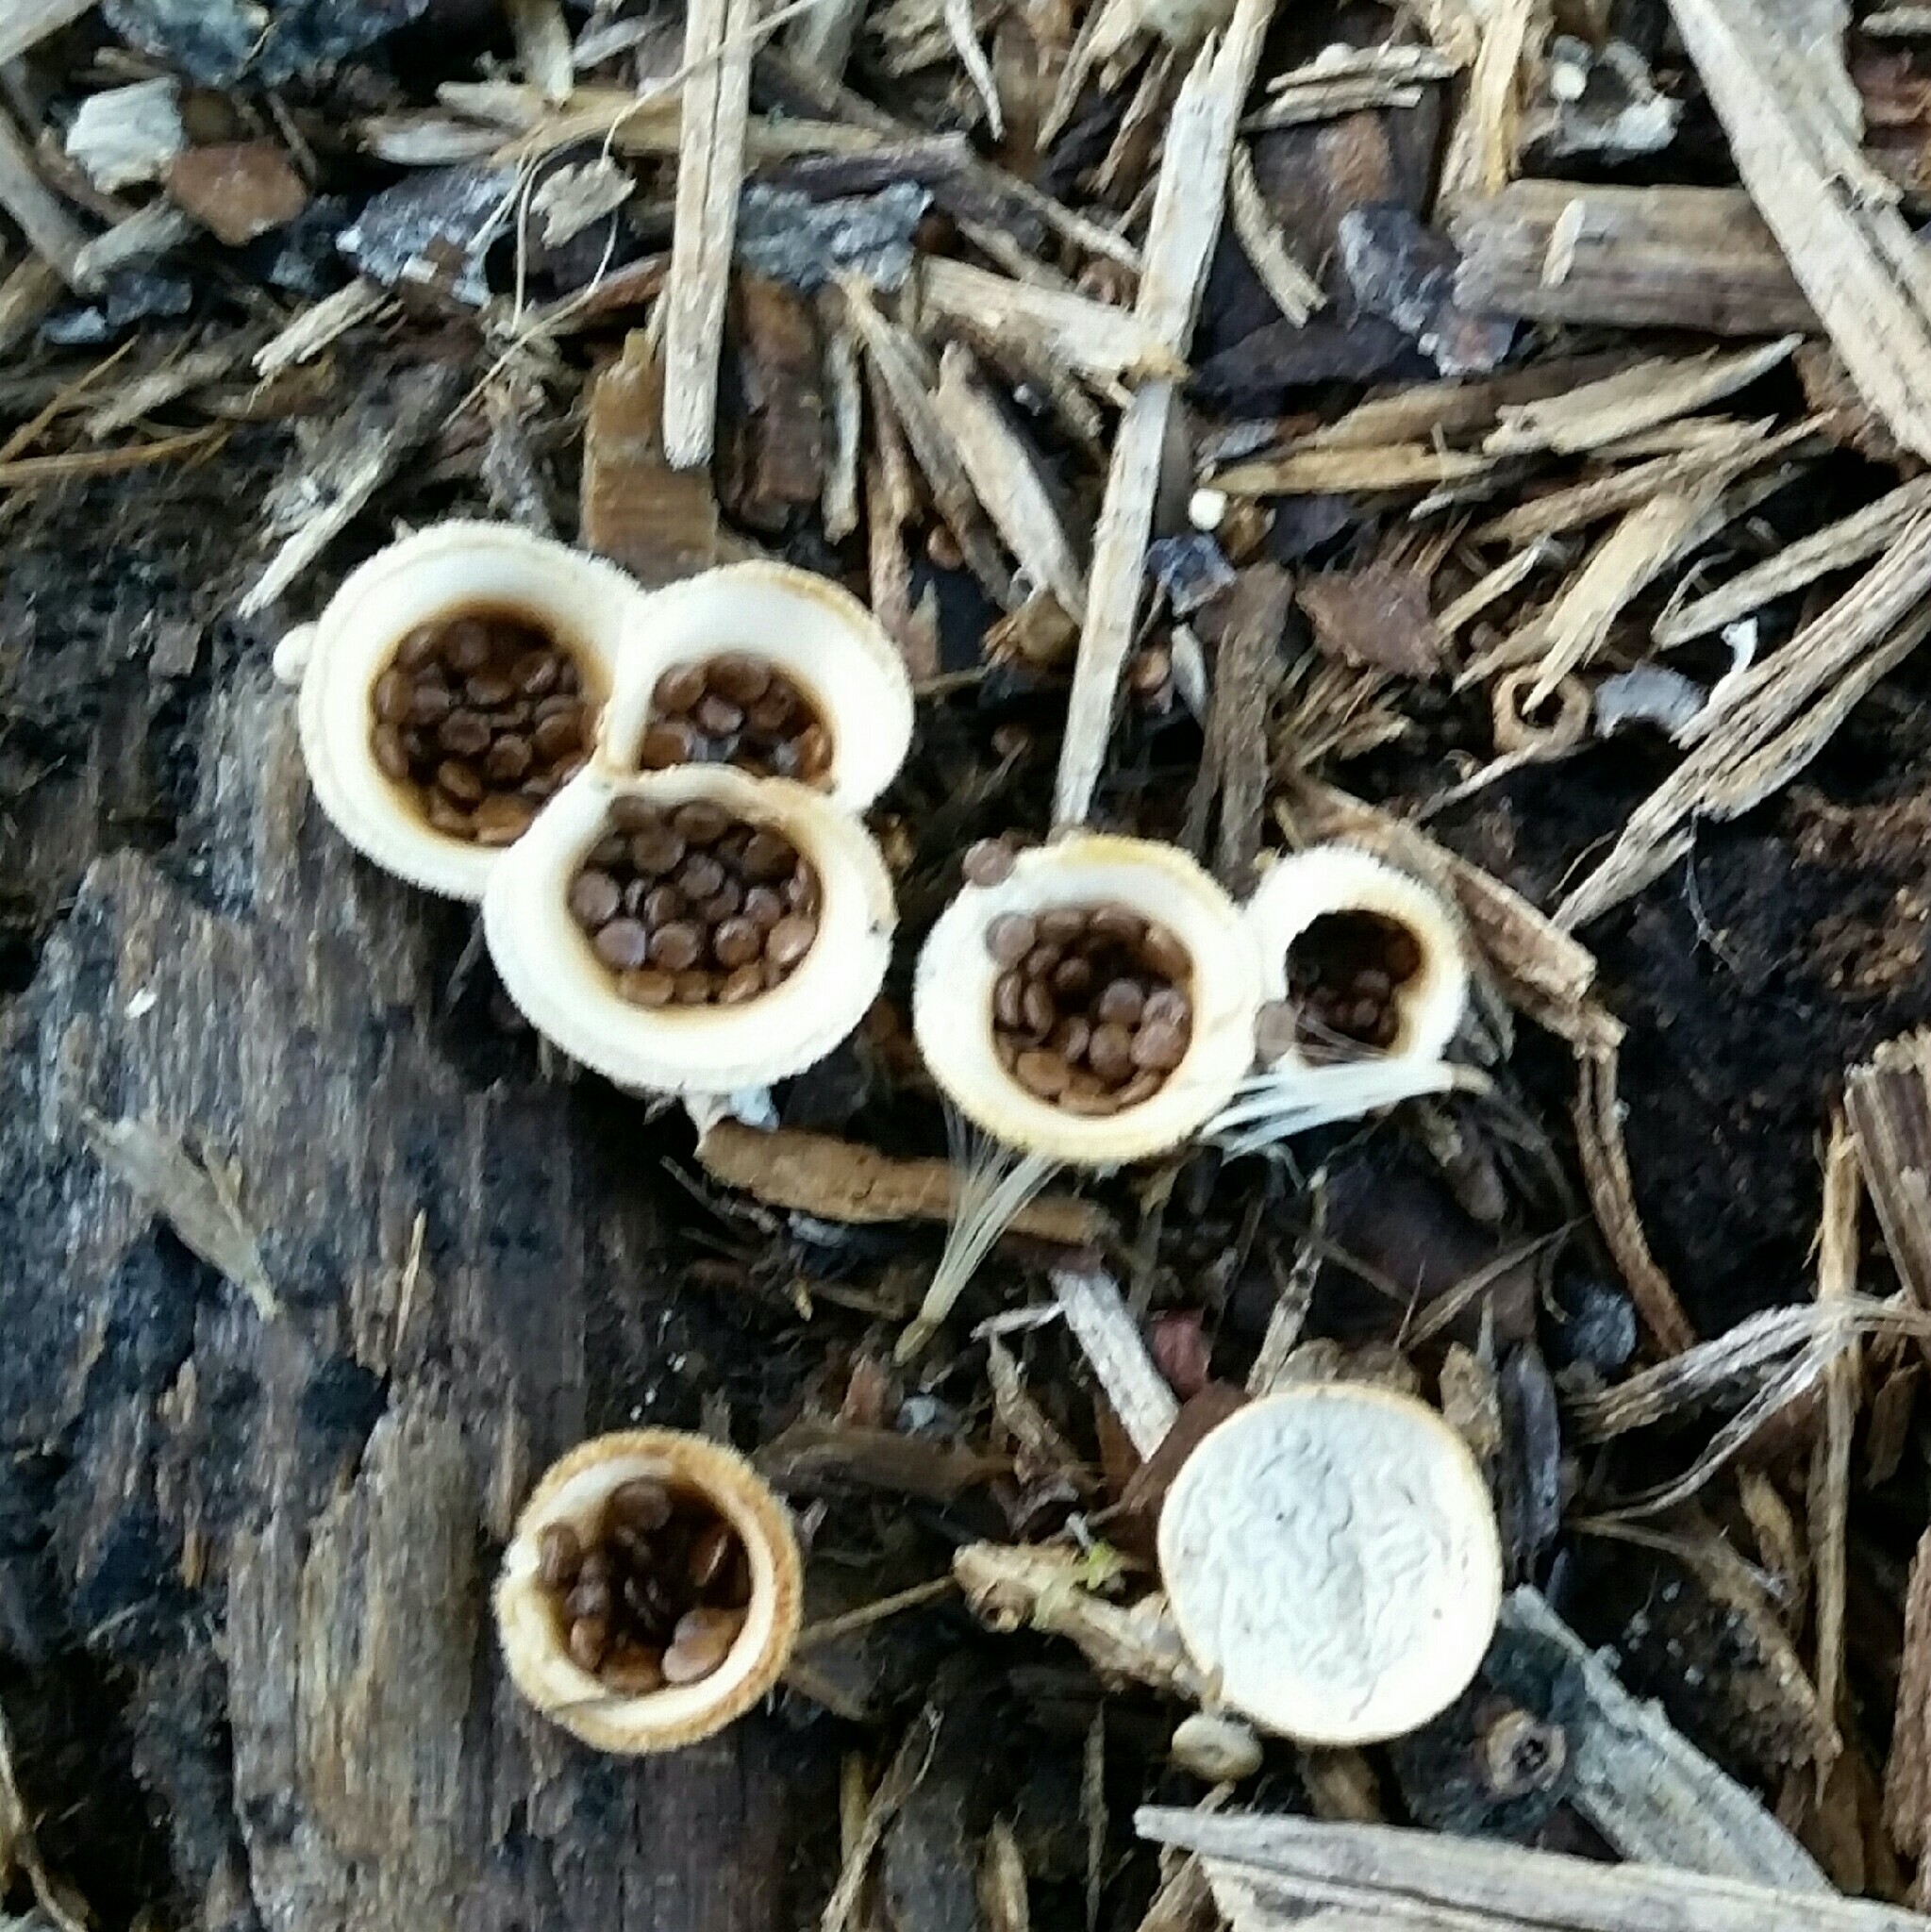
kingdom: Fungi
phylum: Basidiomycota
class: Agaricomycetes
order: Agaricales
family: Agaricaceae
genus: Nidula
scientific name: Nidula niveotomentosa
